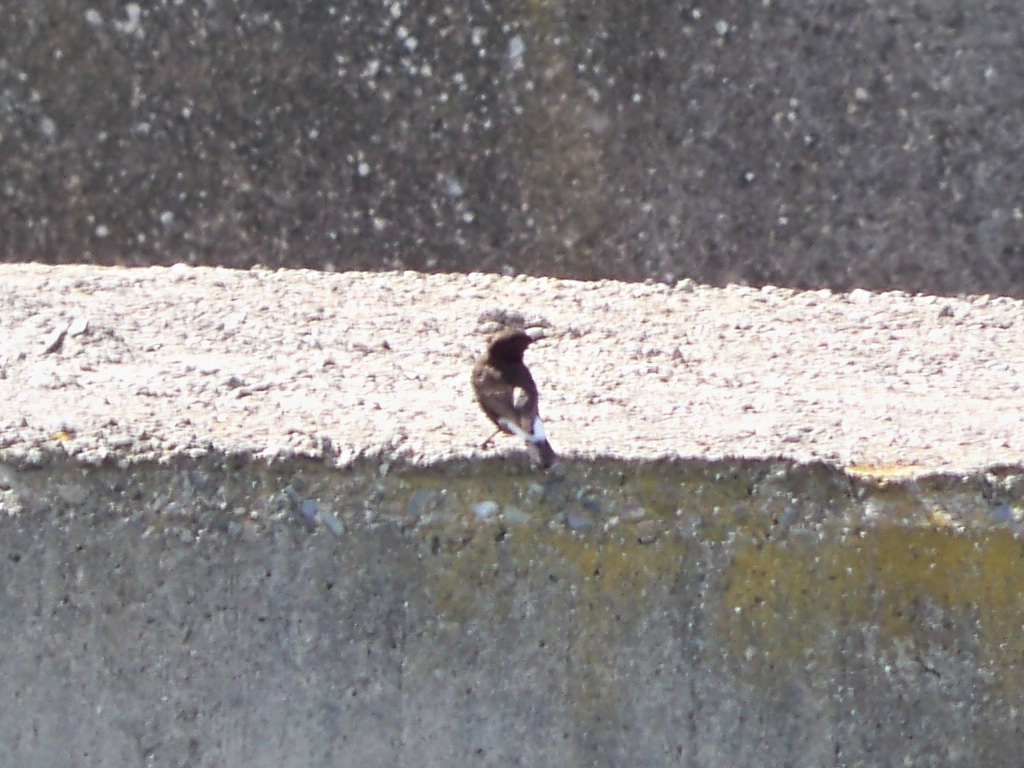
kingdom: Animalia
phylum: Chordata
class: Aves
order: Passeriformes
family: Muscicapidae
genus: Oenanthe
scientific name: Oenanthe leucura
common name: Black wheatear
